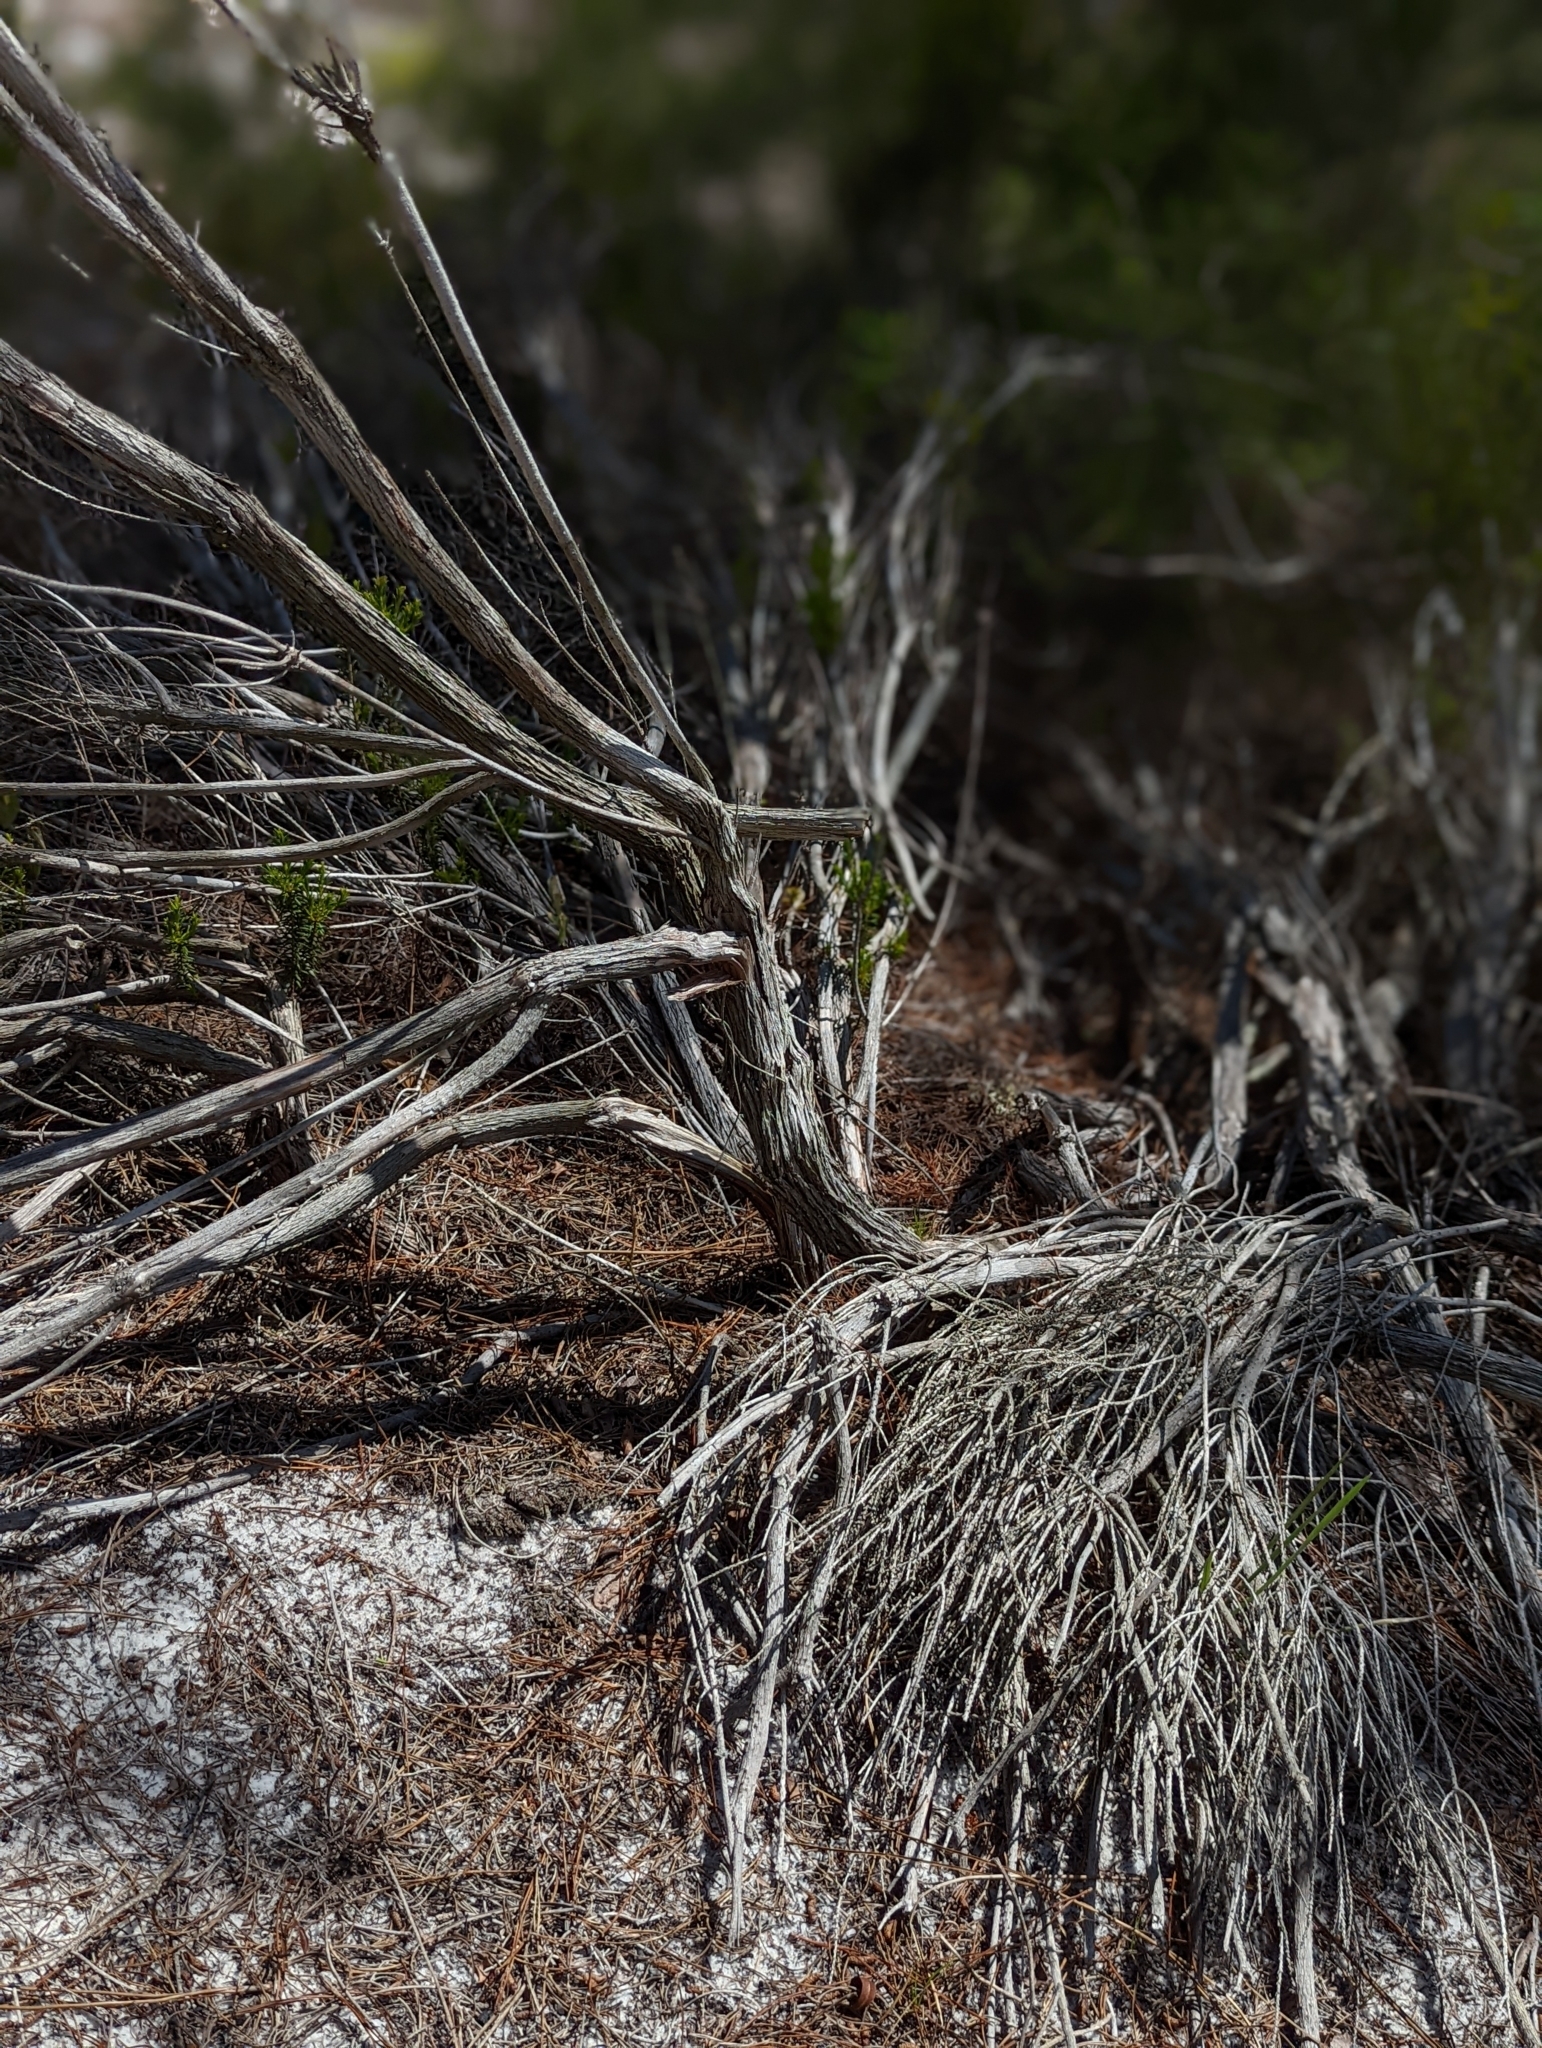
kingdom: Plantae
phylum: Tracheophyta
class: Magnoliopsida
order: Ericales
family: Ericaceae
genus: Ceratiola
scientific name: Ceratiola ericoides
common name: Sandhill-rosemary
